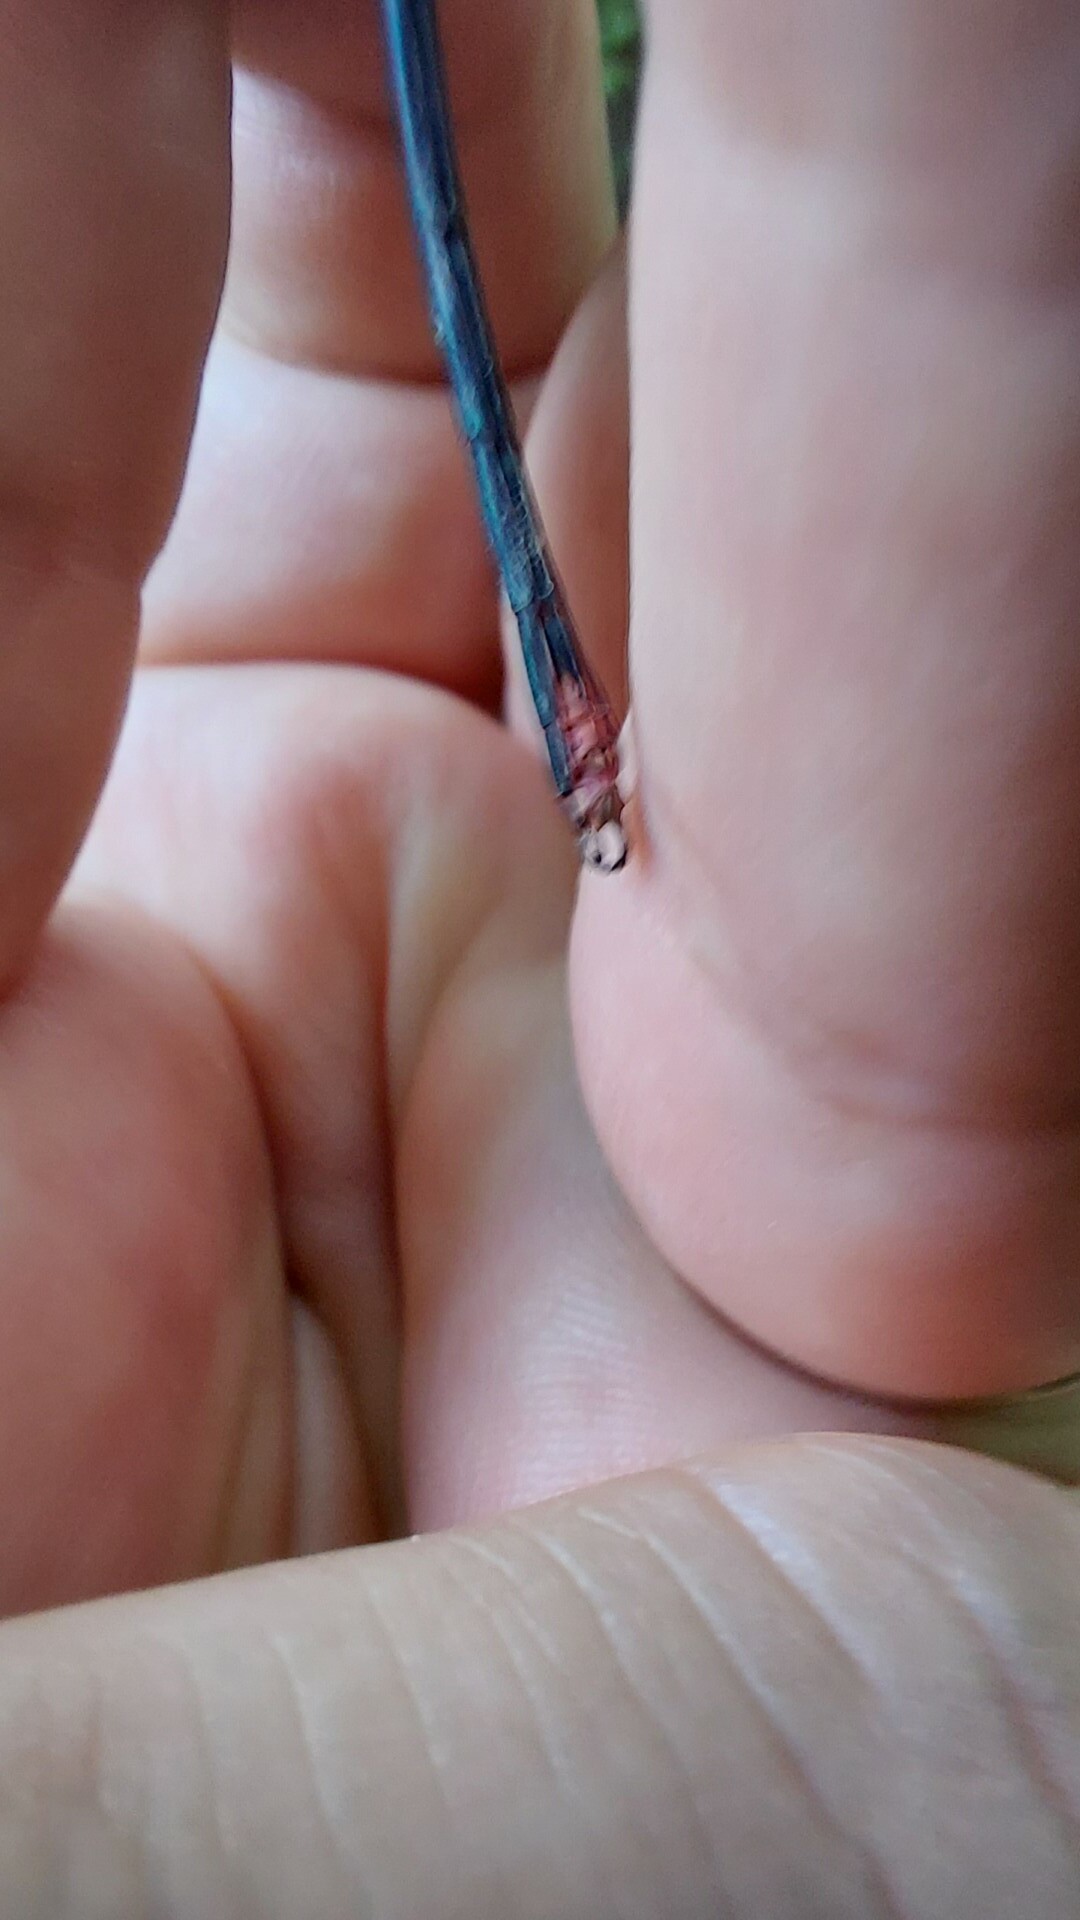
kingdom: Animalia
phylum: Arthropoda
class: Insecta
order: Odonata
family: Calopterygidae
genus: Calopteryx
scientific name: Calopteryx virgo
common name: Beautiful demoiselle
